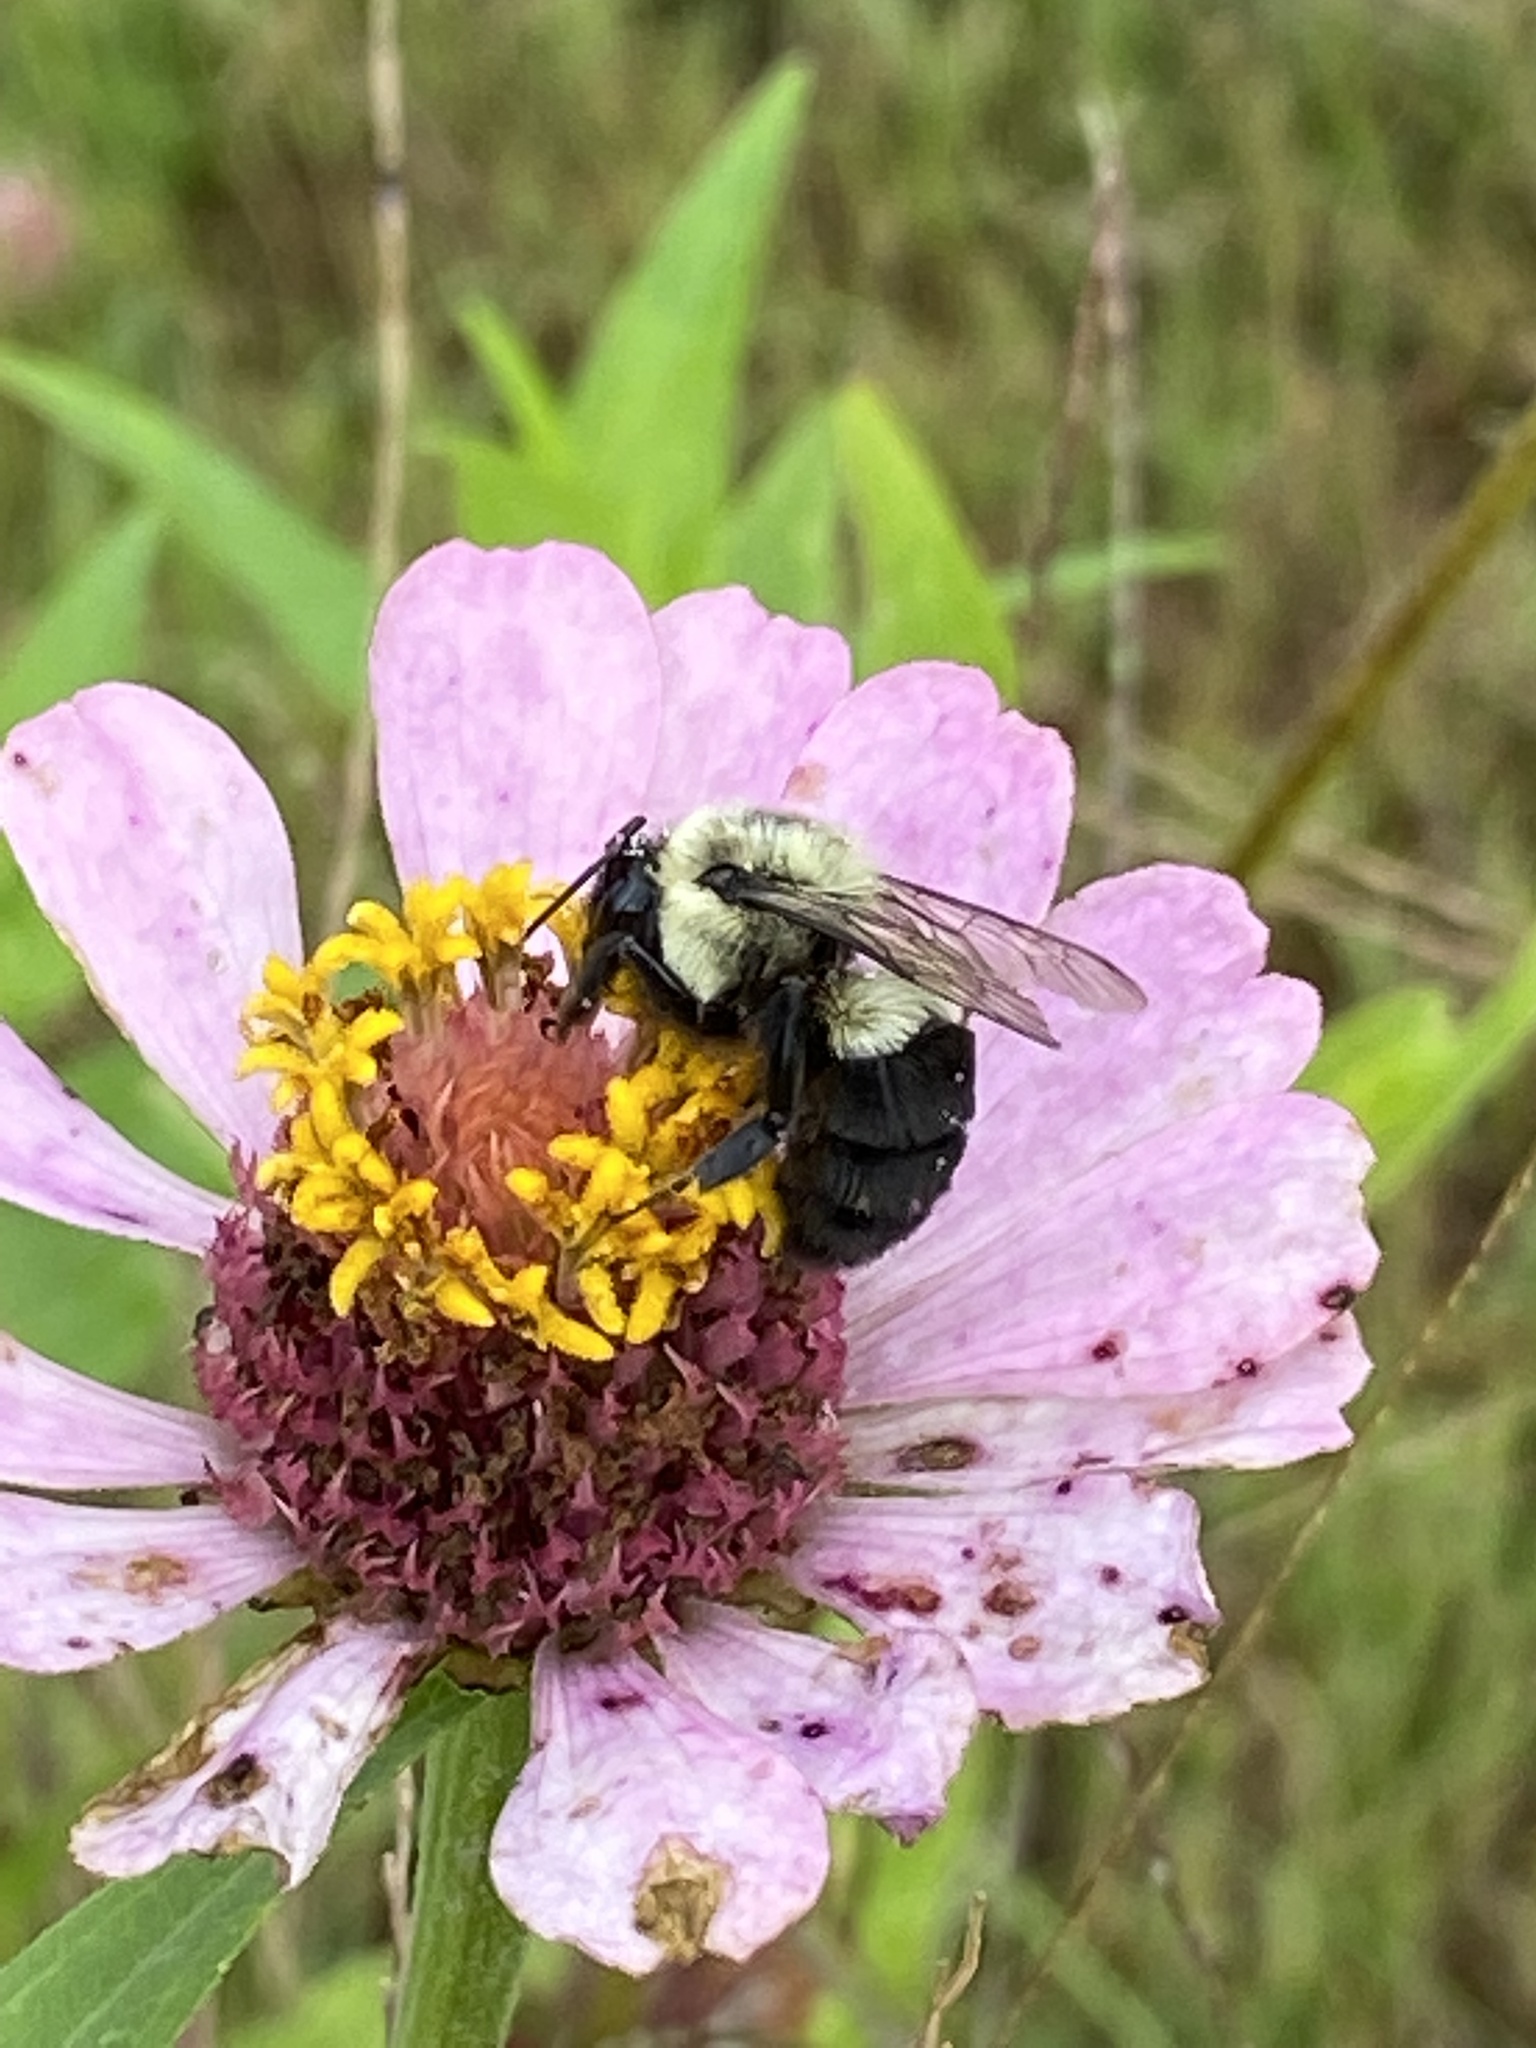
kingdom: Animalia
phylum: Arthropoda
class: Insecta
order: Hymenoptera
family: Apidae
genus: Bombus
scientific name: Bombus impatiens
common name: Common eastern bumble bee
